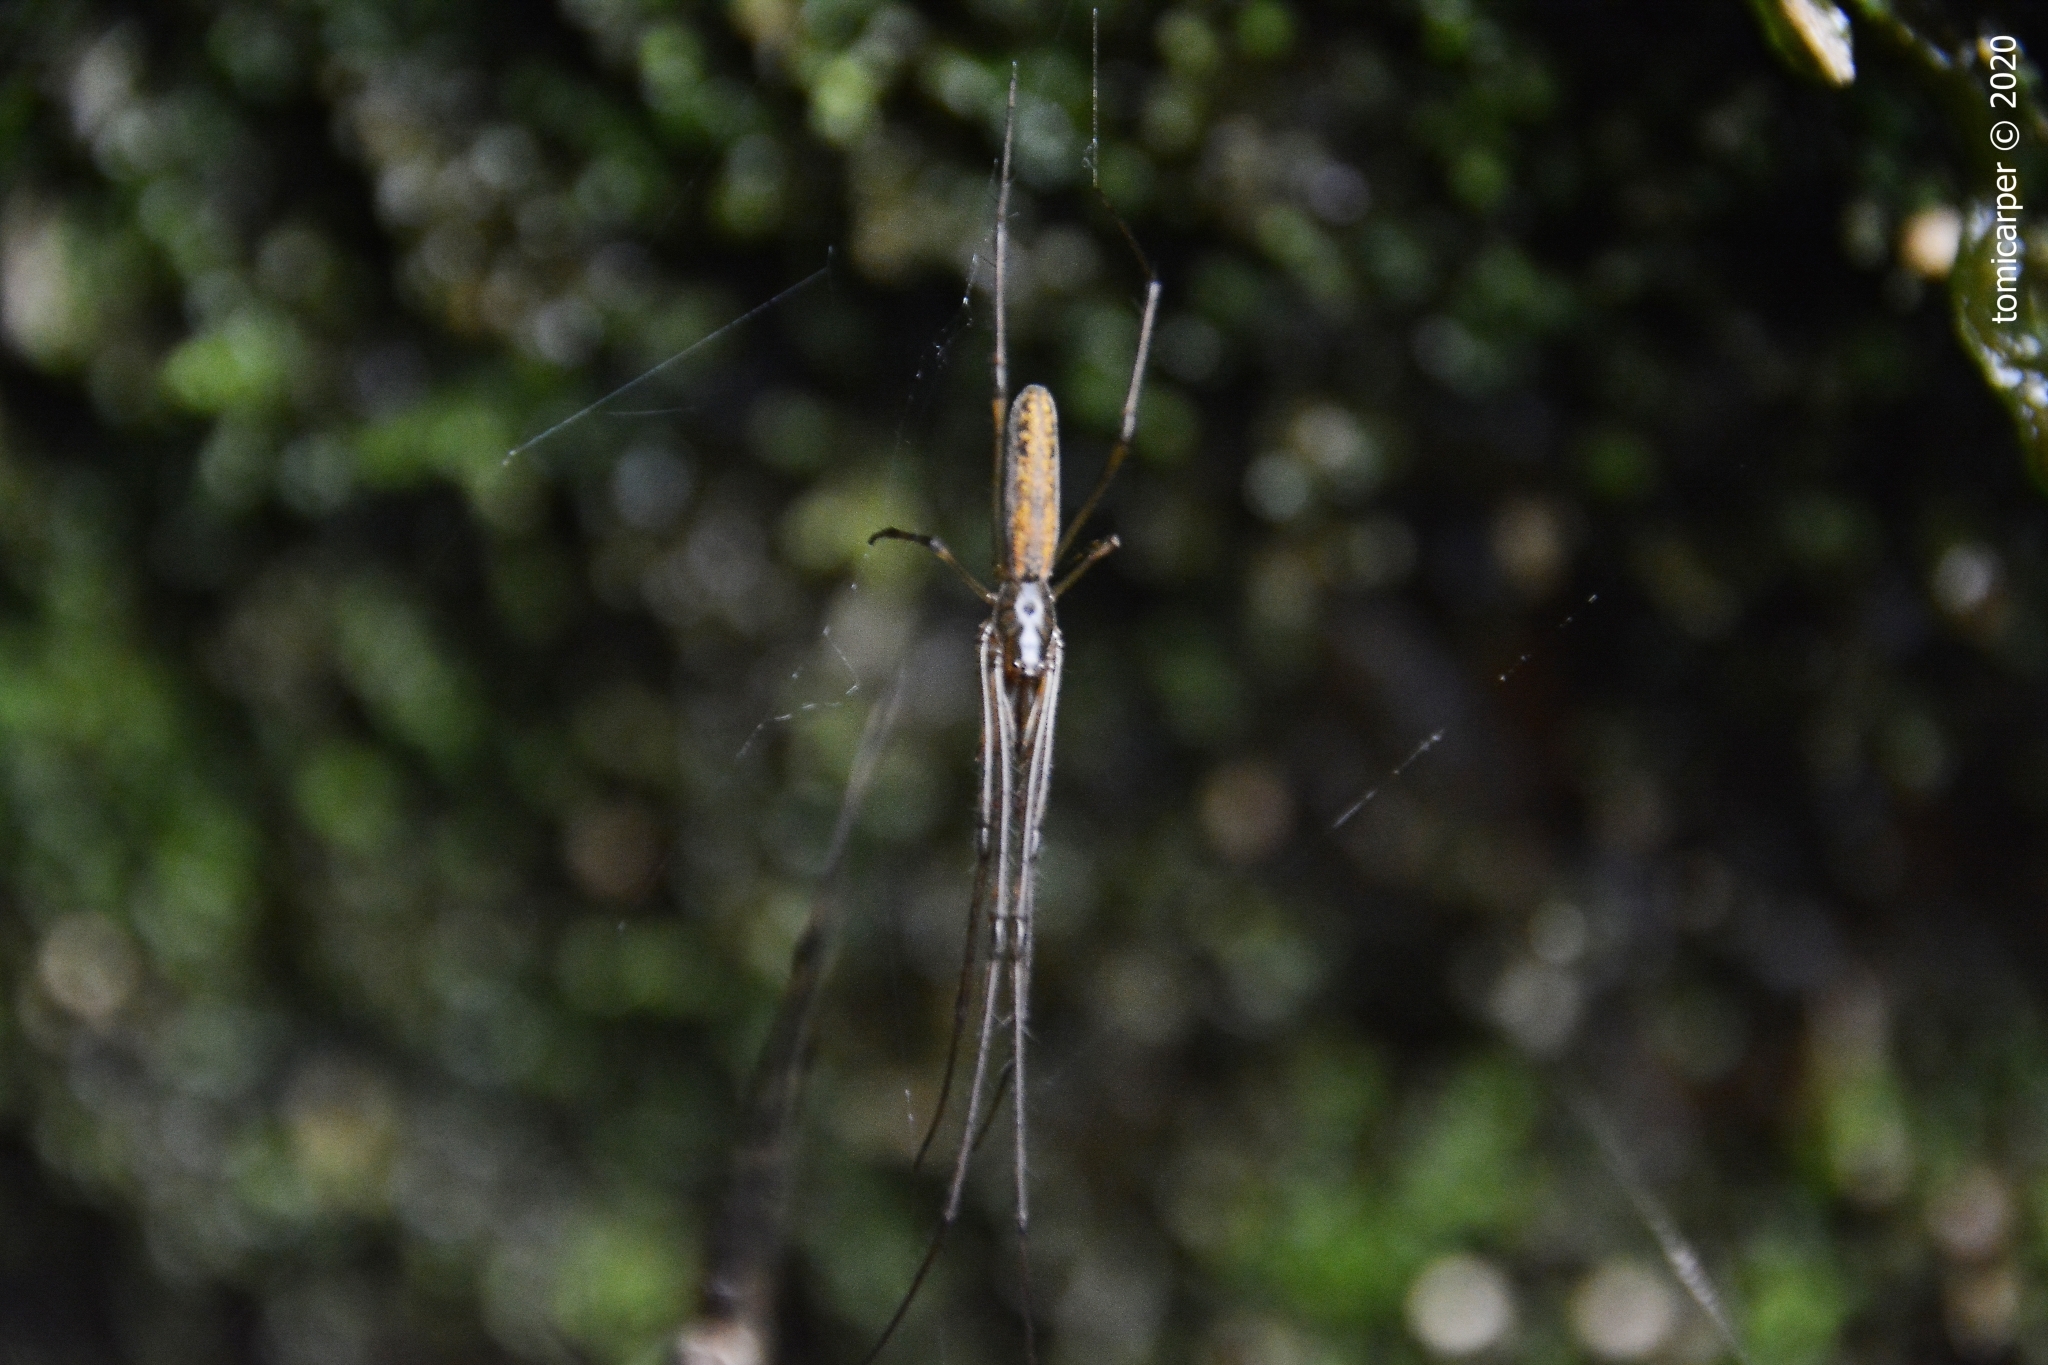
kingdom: Animalia
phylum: Arthropoda
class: Arachnida
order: Araneae
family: Tetragnathidae
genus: Tetragnatha
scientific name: Tetragnatha
